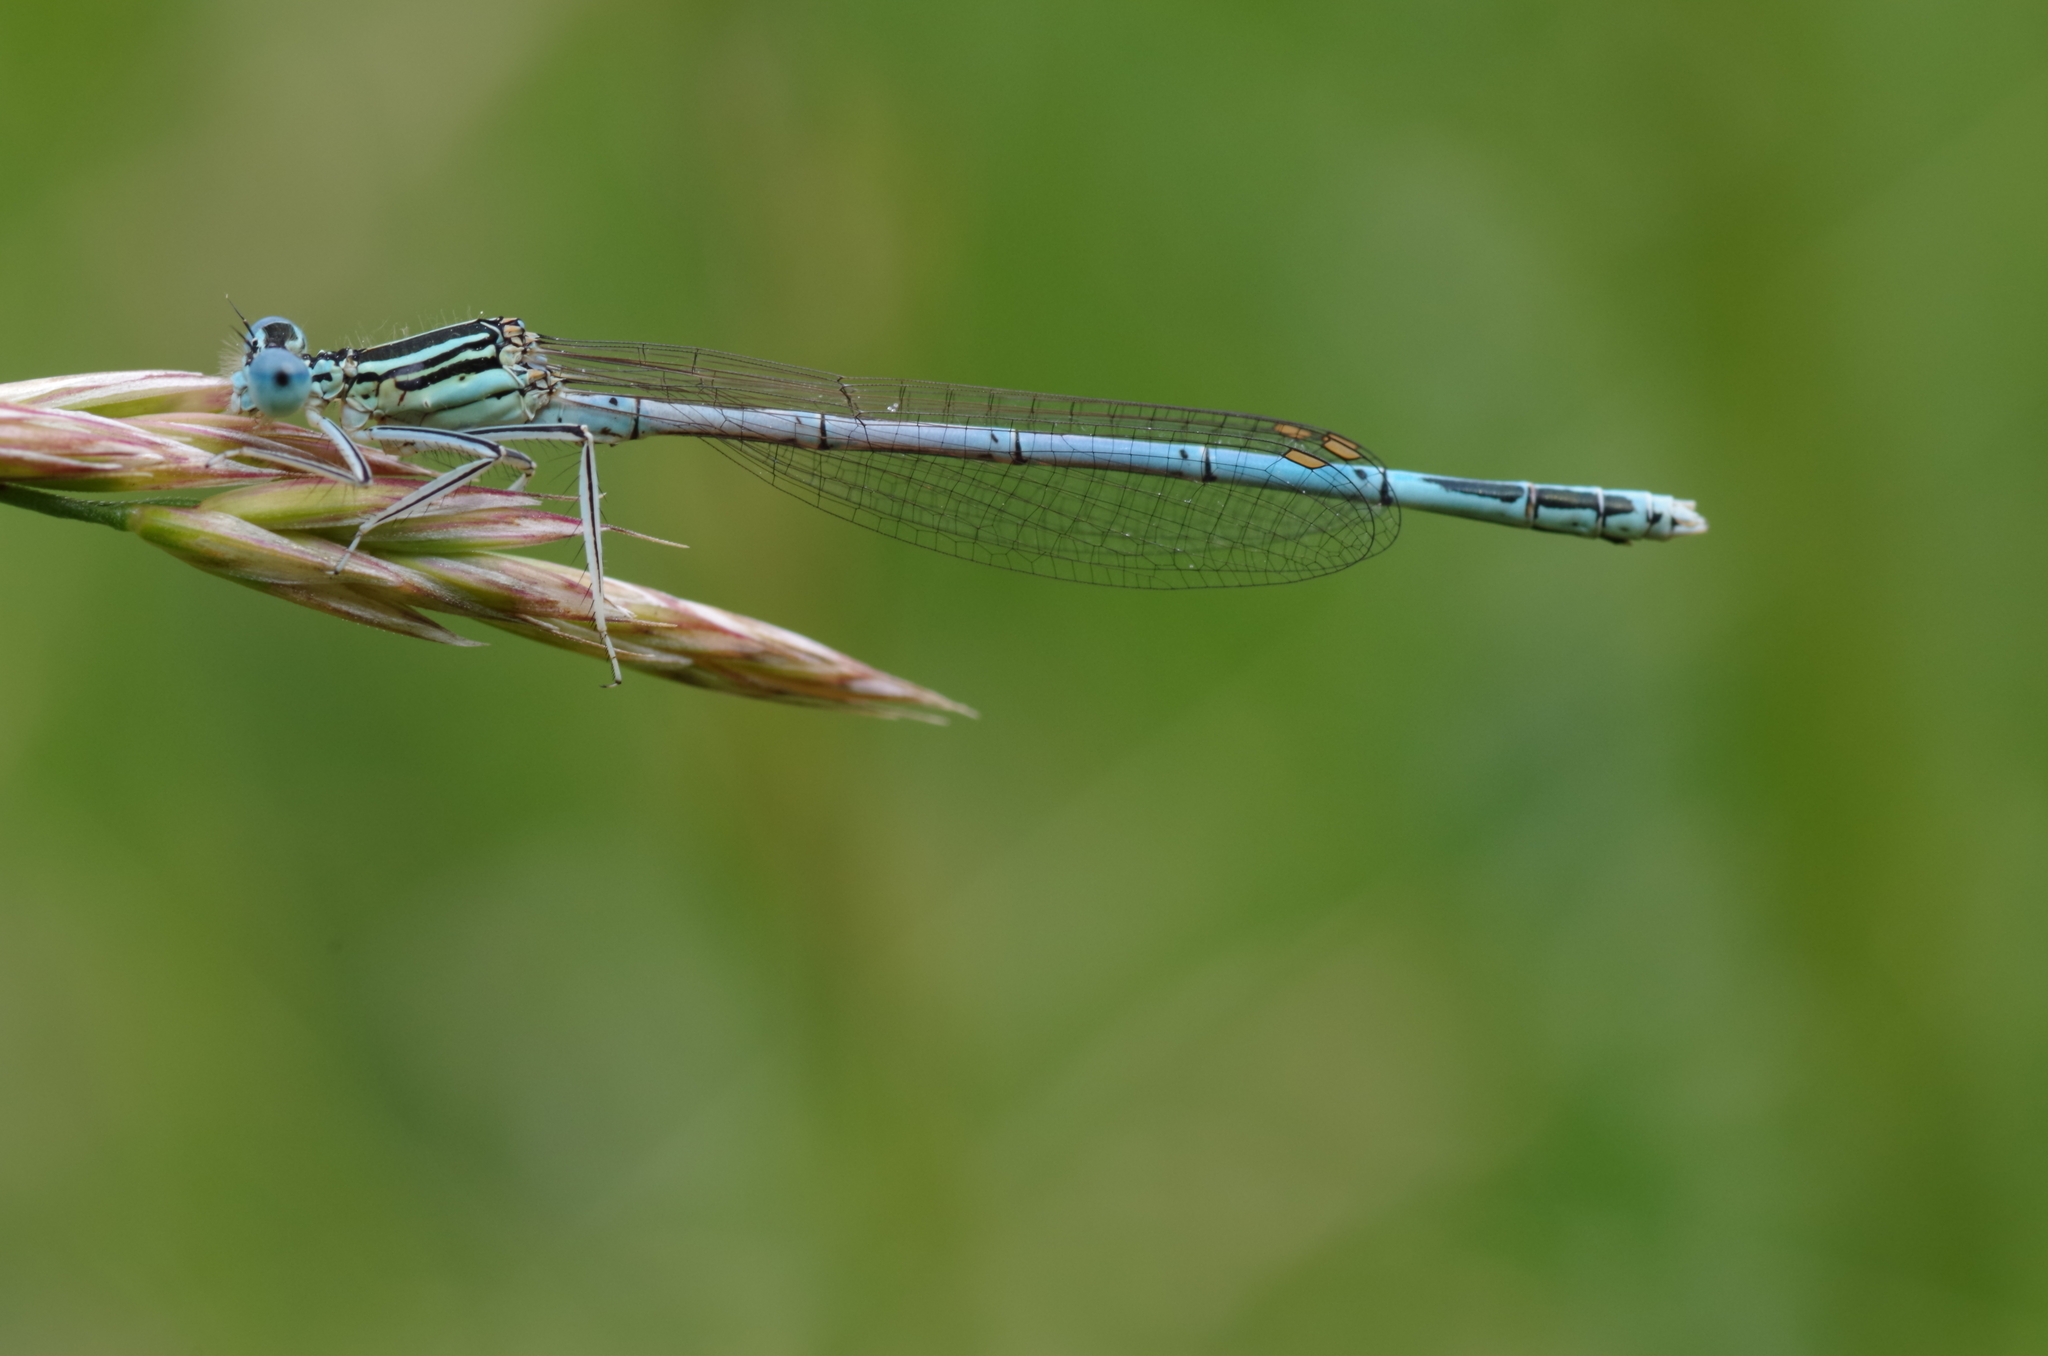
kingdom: Animalia
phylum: Arthropoda
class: Insecta
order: Odonata
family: Platycnemididae
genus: Platycnemis
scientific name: Platycnemis pennipes
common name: White-legged damselfly
